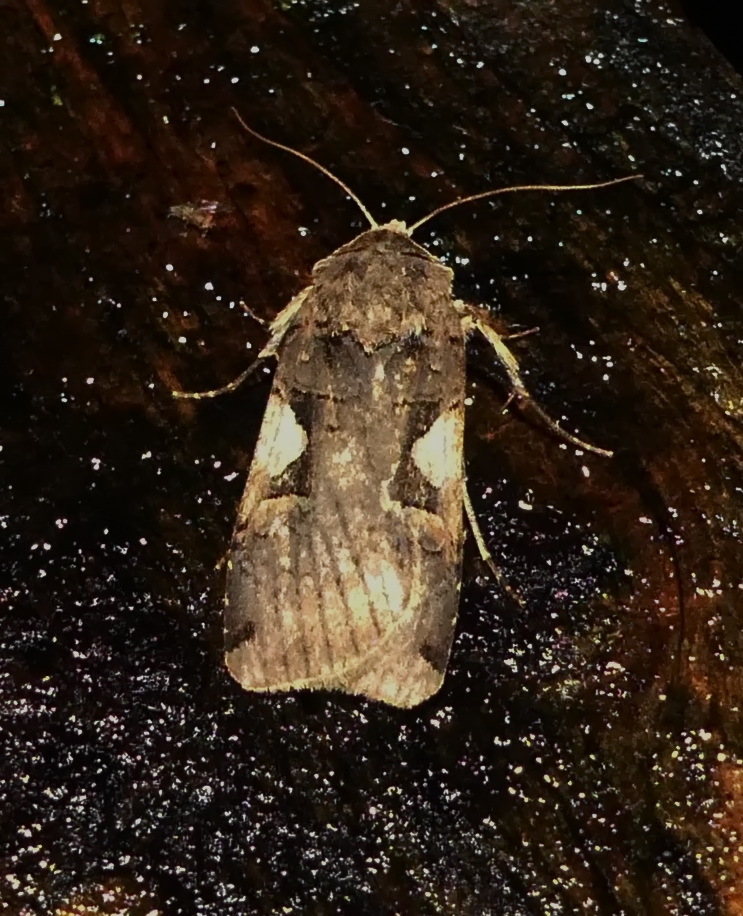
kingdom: Animalia
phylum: Arthropoda
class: Insecta
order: Lepidoptera
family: Noctuidae
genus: Xestia
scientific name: Xestia
